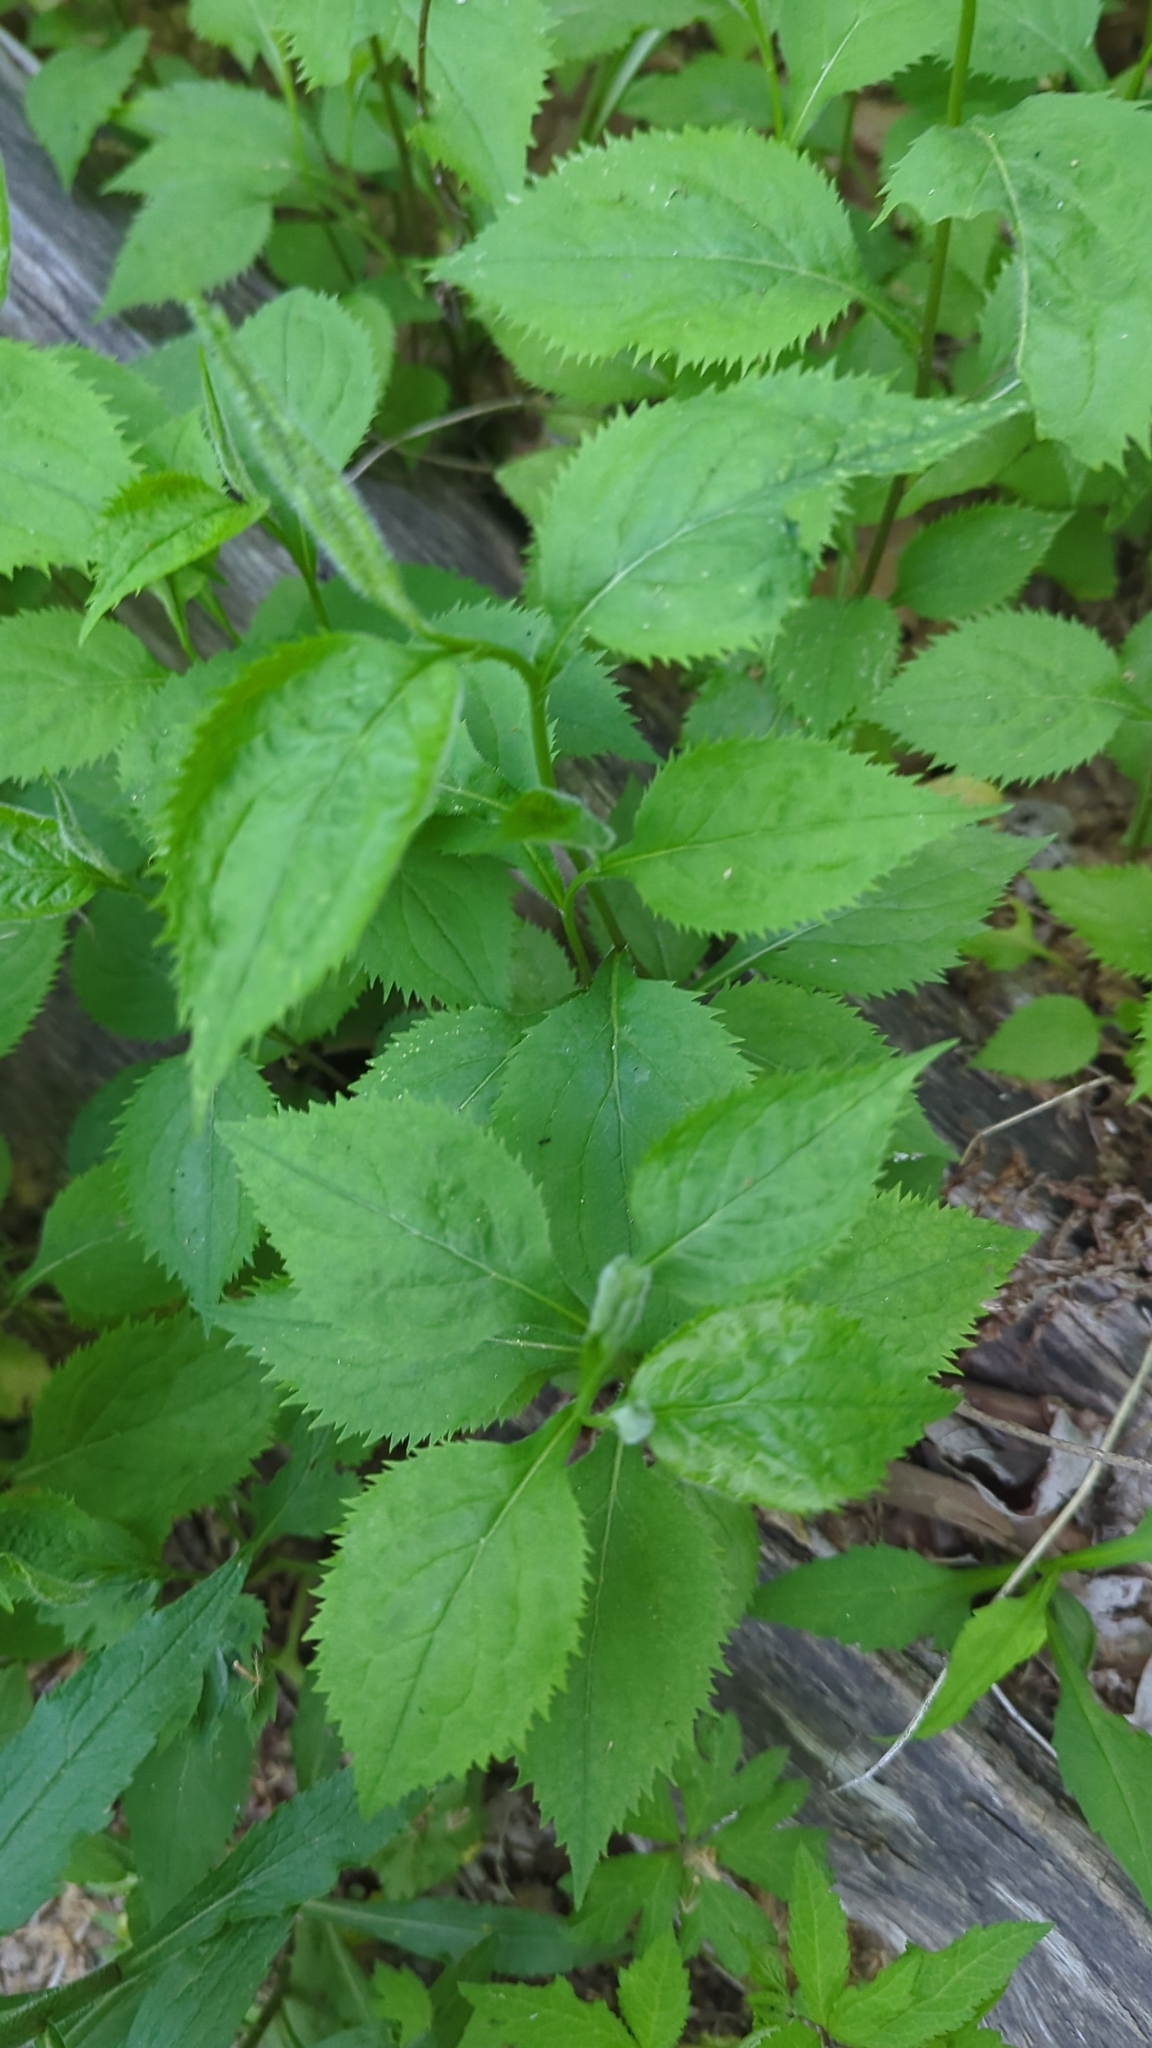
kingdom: Plantae
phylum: Tracheophyta
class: Magnoliopsida
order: Asterales
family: Asteraceae
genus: Solidago
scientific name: Solidago flexicaulis
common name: Zig-zag goldenrod
